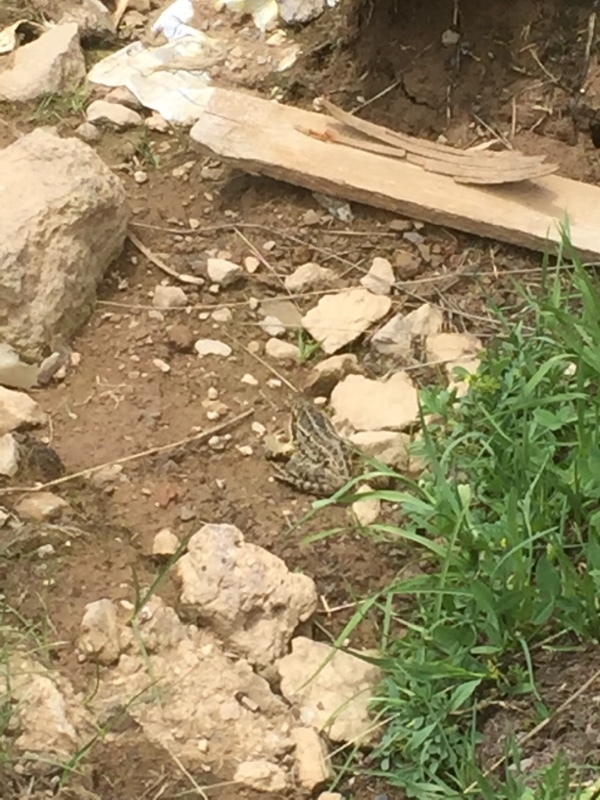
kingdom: Animalia
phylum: Chordata
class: Amphibia
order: Anura
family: Ranidae
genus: Rana
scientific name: Rana macrocnemis
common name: Banded frog
